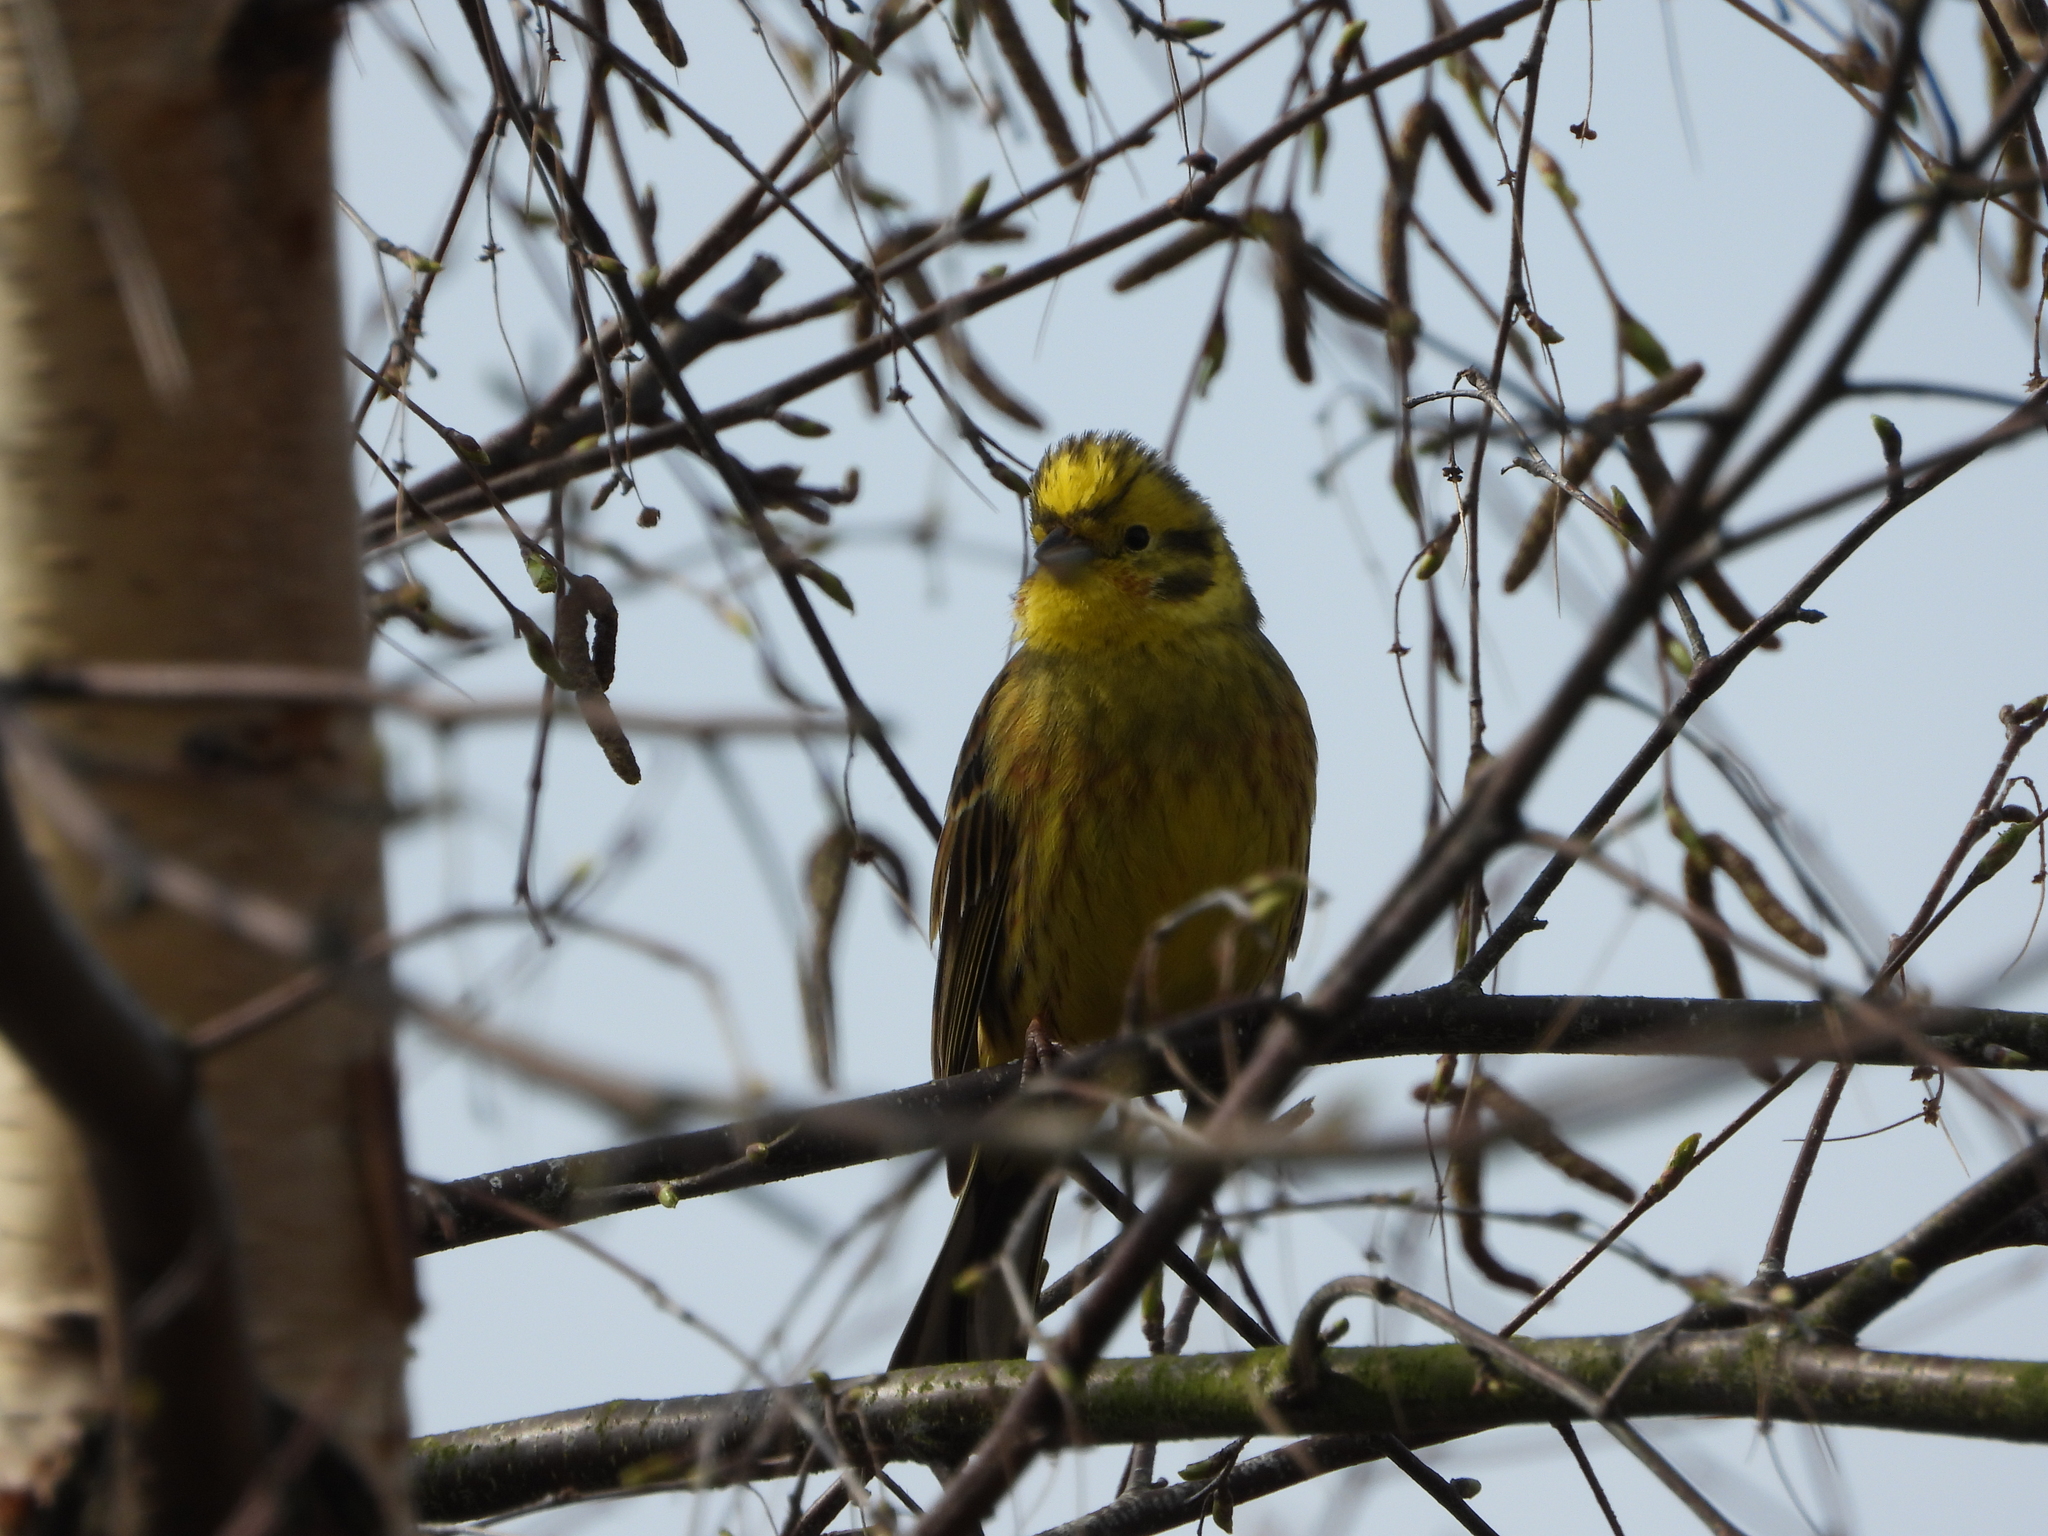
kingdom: Animalia
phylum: Chordata
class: Aves
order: Passeriformes
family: Emberizidae
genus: Emberiza
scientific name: Emberiza citrinella
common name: Yellowhammer
